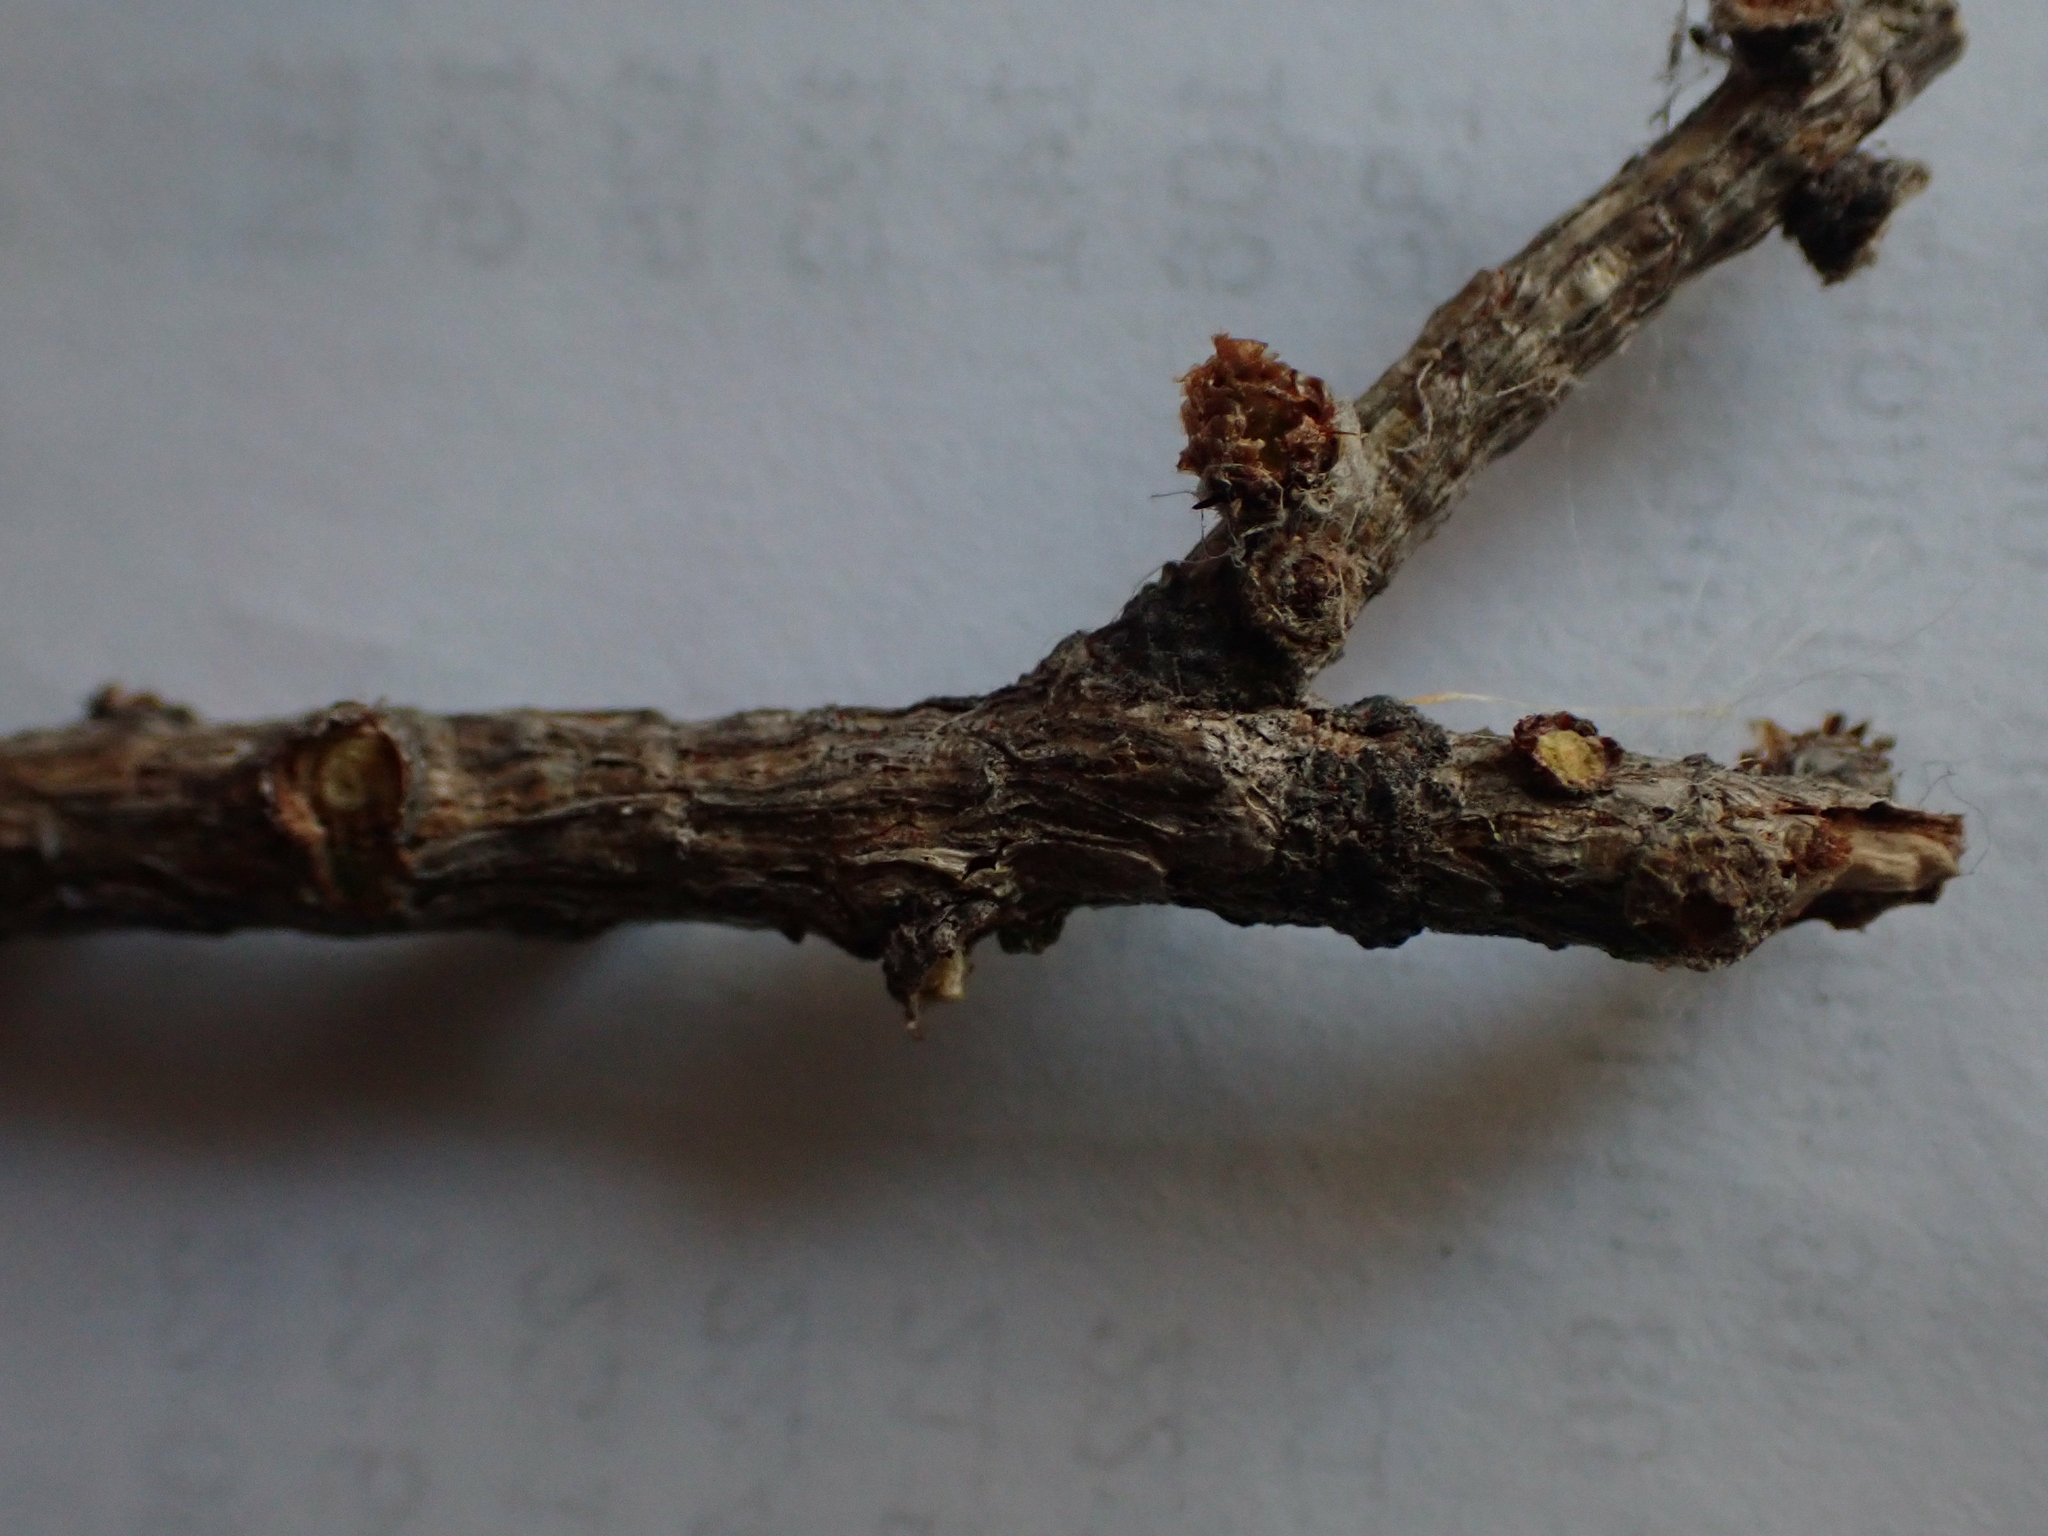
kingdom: Animalia
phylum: Chordata
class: Mammalia
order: Rodentia
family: Sciuridae
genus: Tamiasciurus
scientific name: Tamiasciurus hudsonicus
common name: Red squirrel
